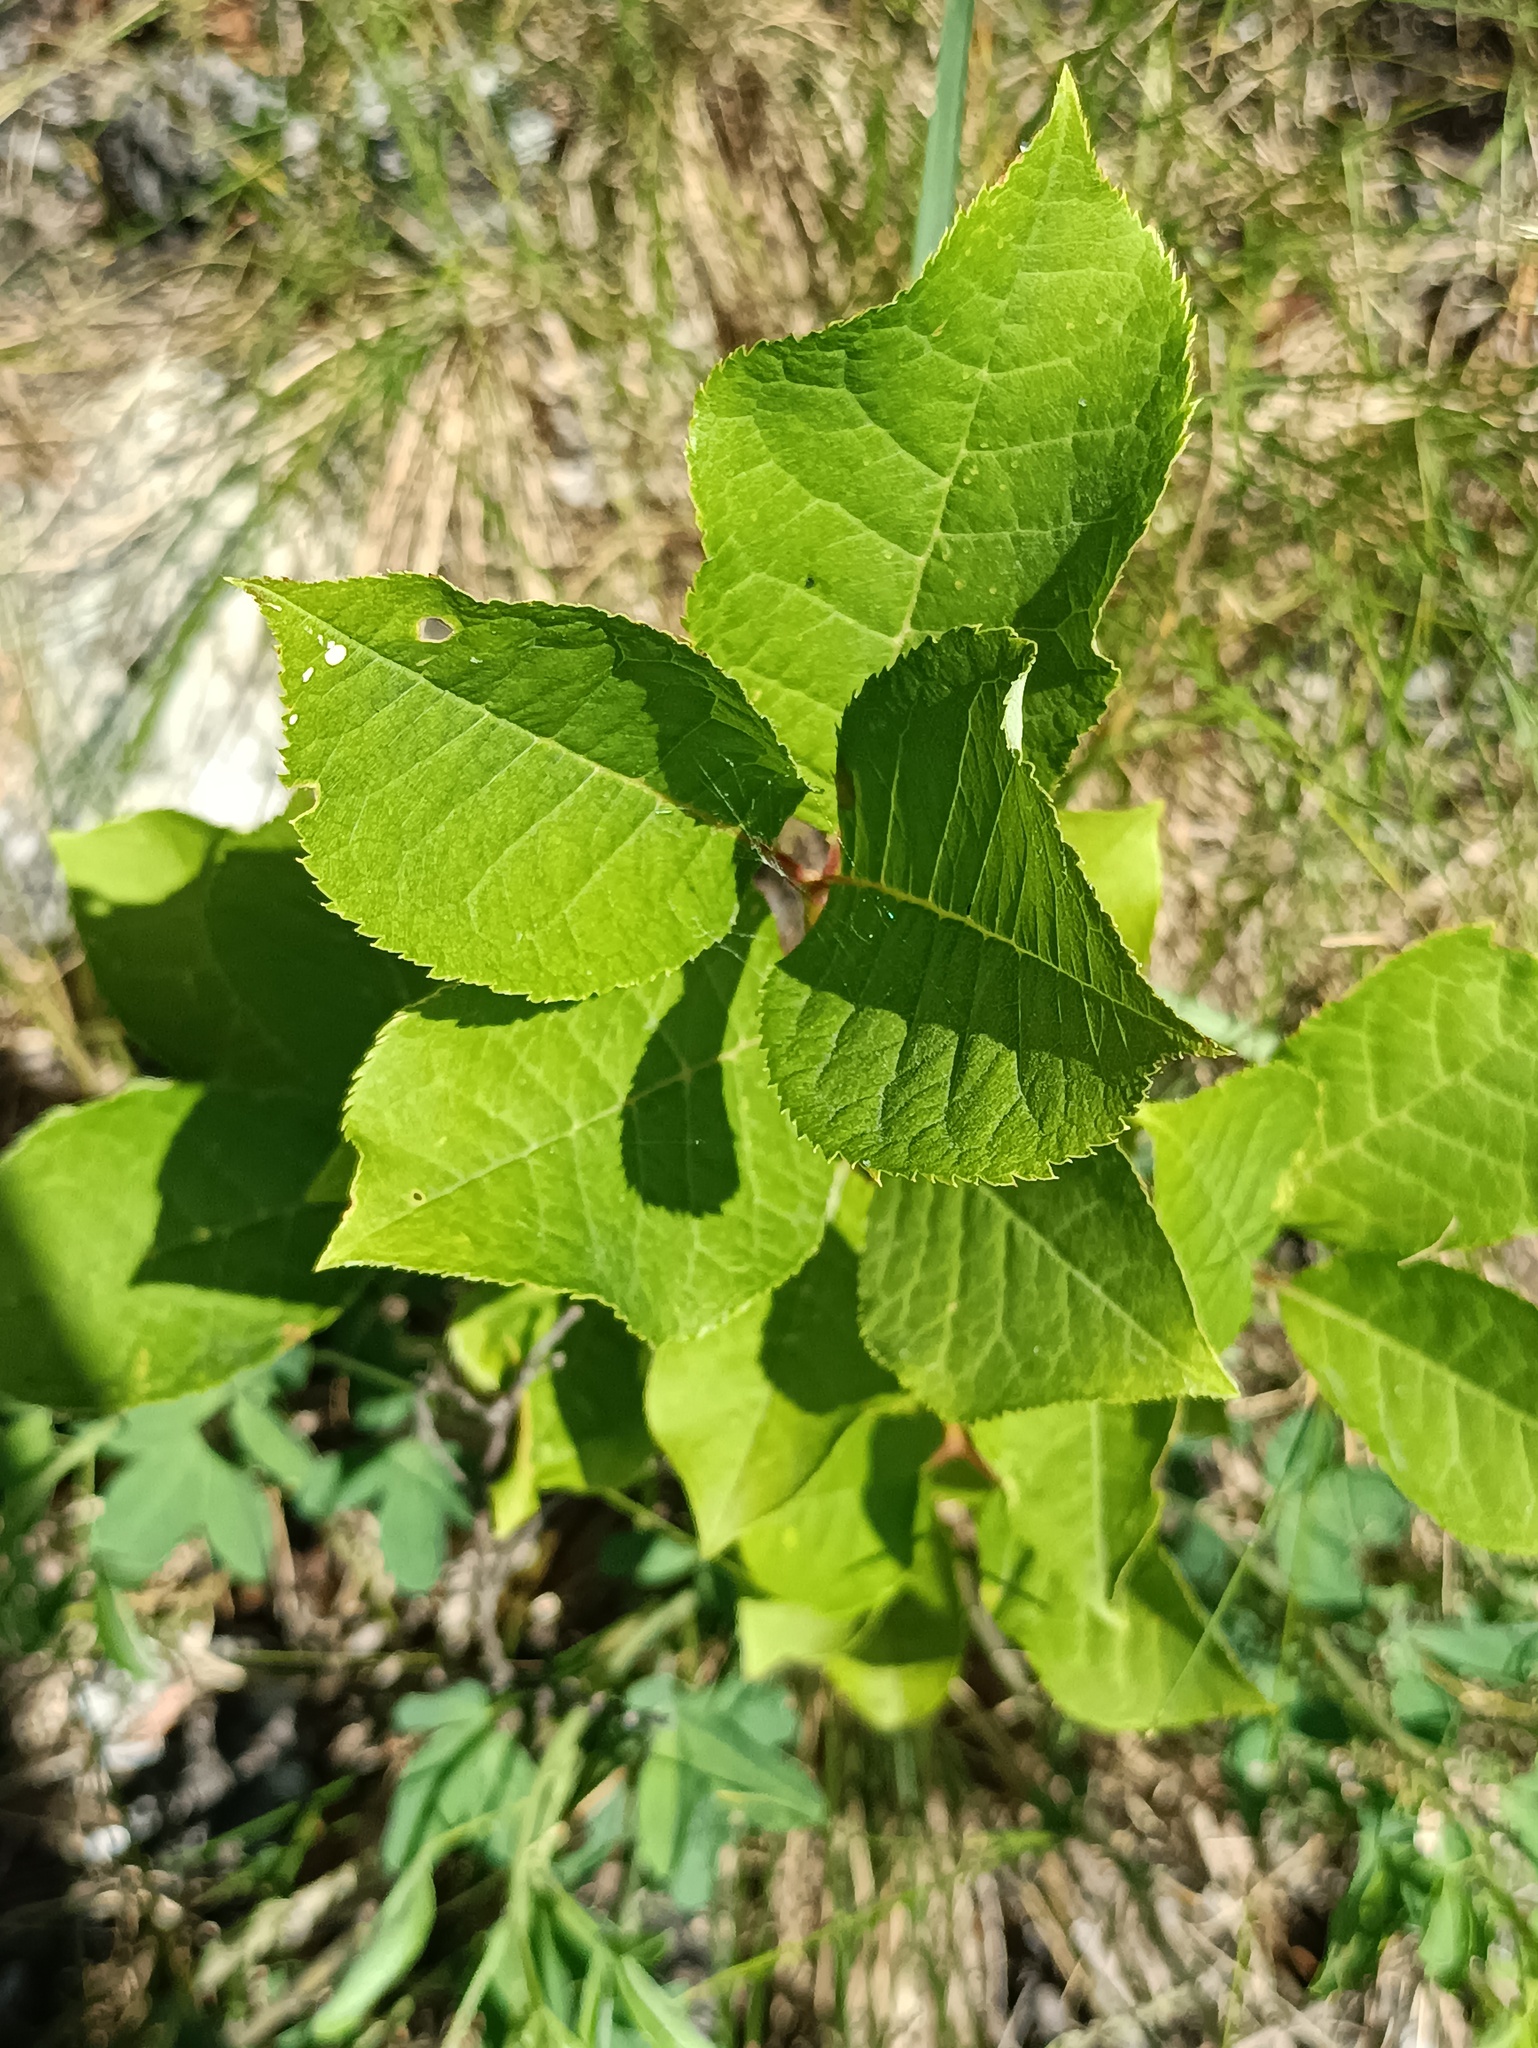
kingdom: Plantae
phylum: Tracheophyta
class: Magnoliopsida
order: Rosales
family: Rosaceae
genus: Prunus
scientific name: Prunus padus
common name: Bird cherry
